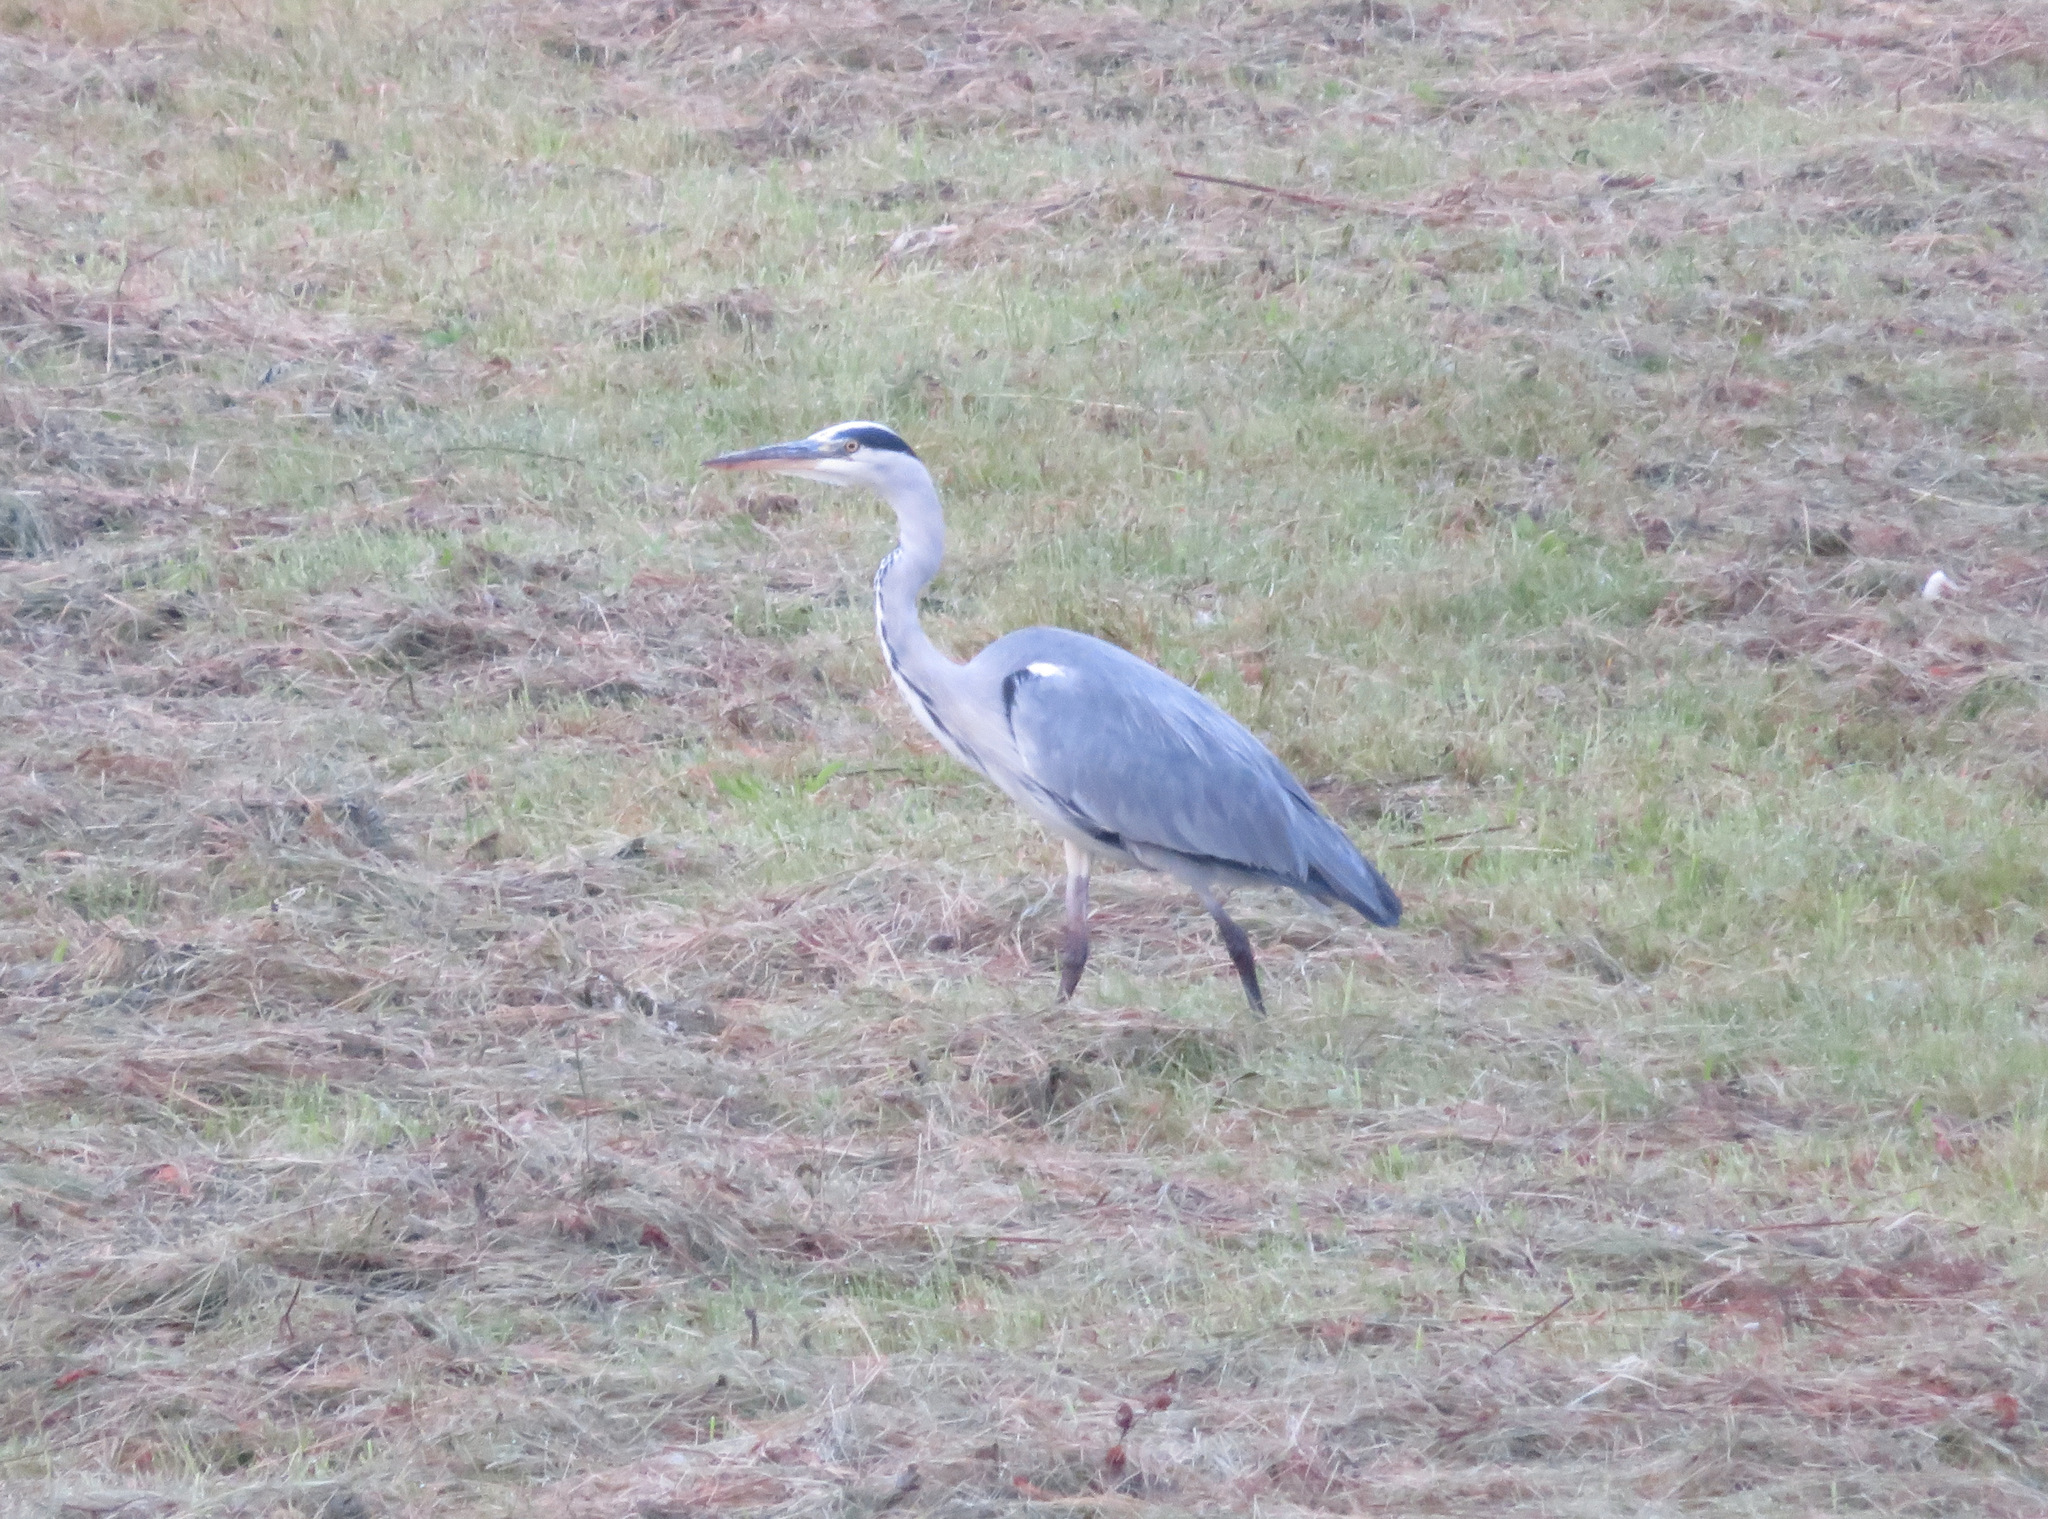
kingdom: Animalia
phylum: Chordata
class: Aves
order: Pelecaniformes
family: Ardeidae
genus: Ardea
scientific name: Ardea cinerea
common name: Grey heron
